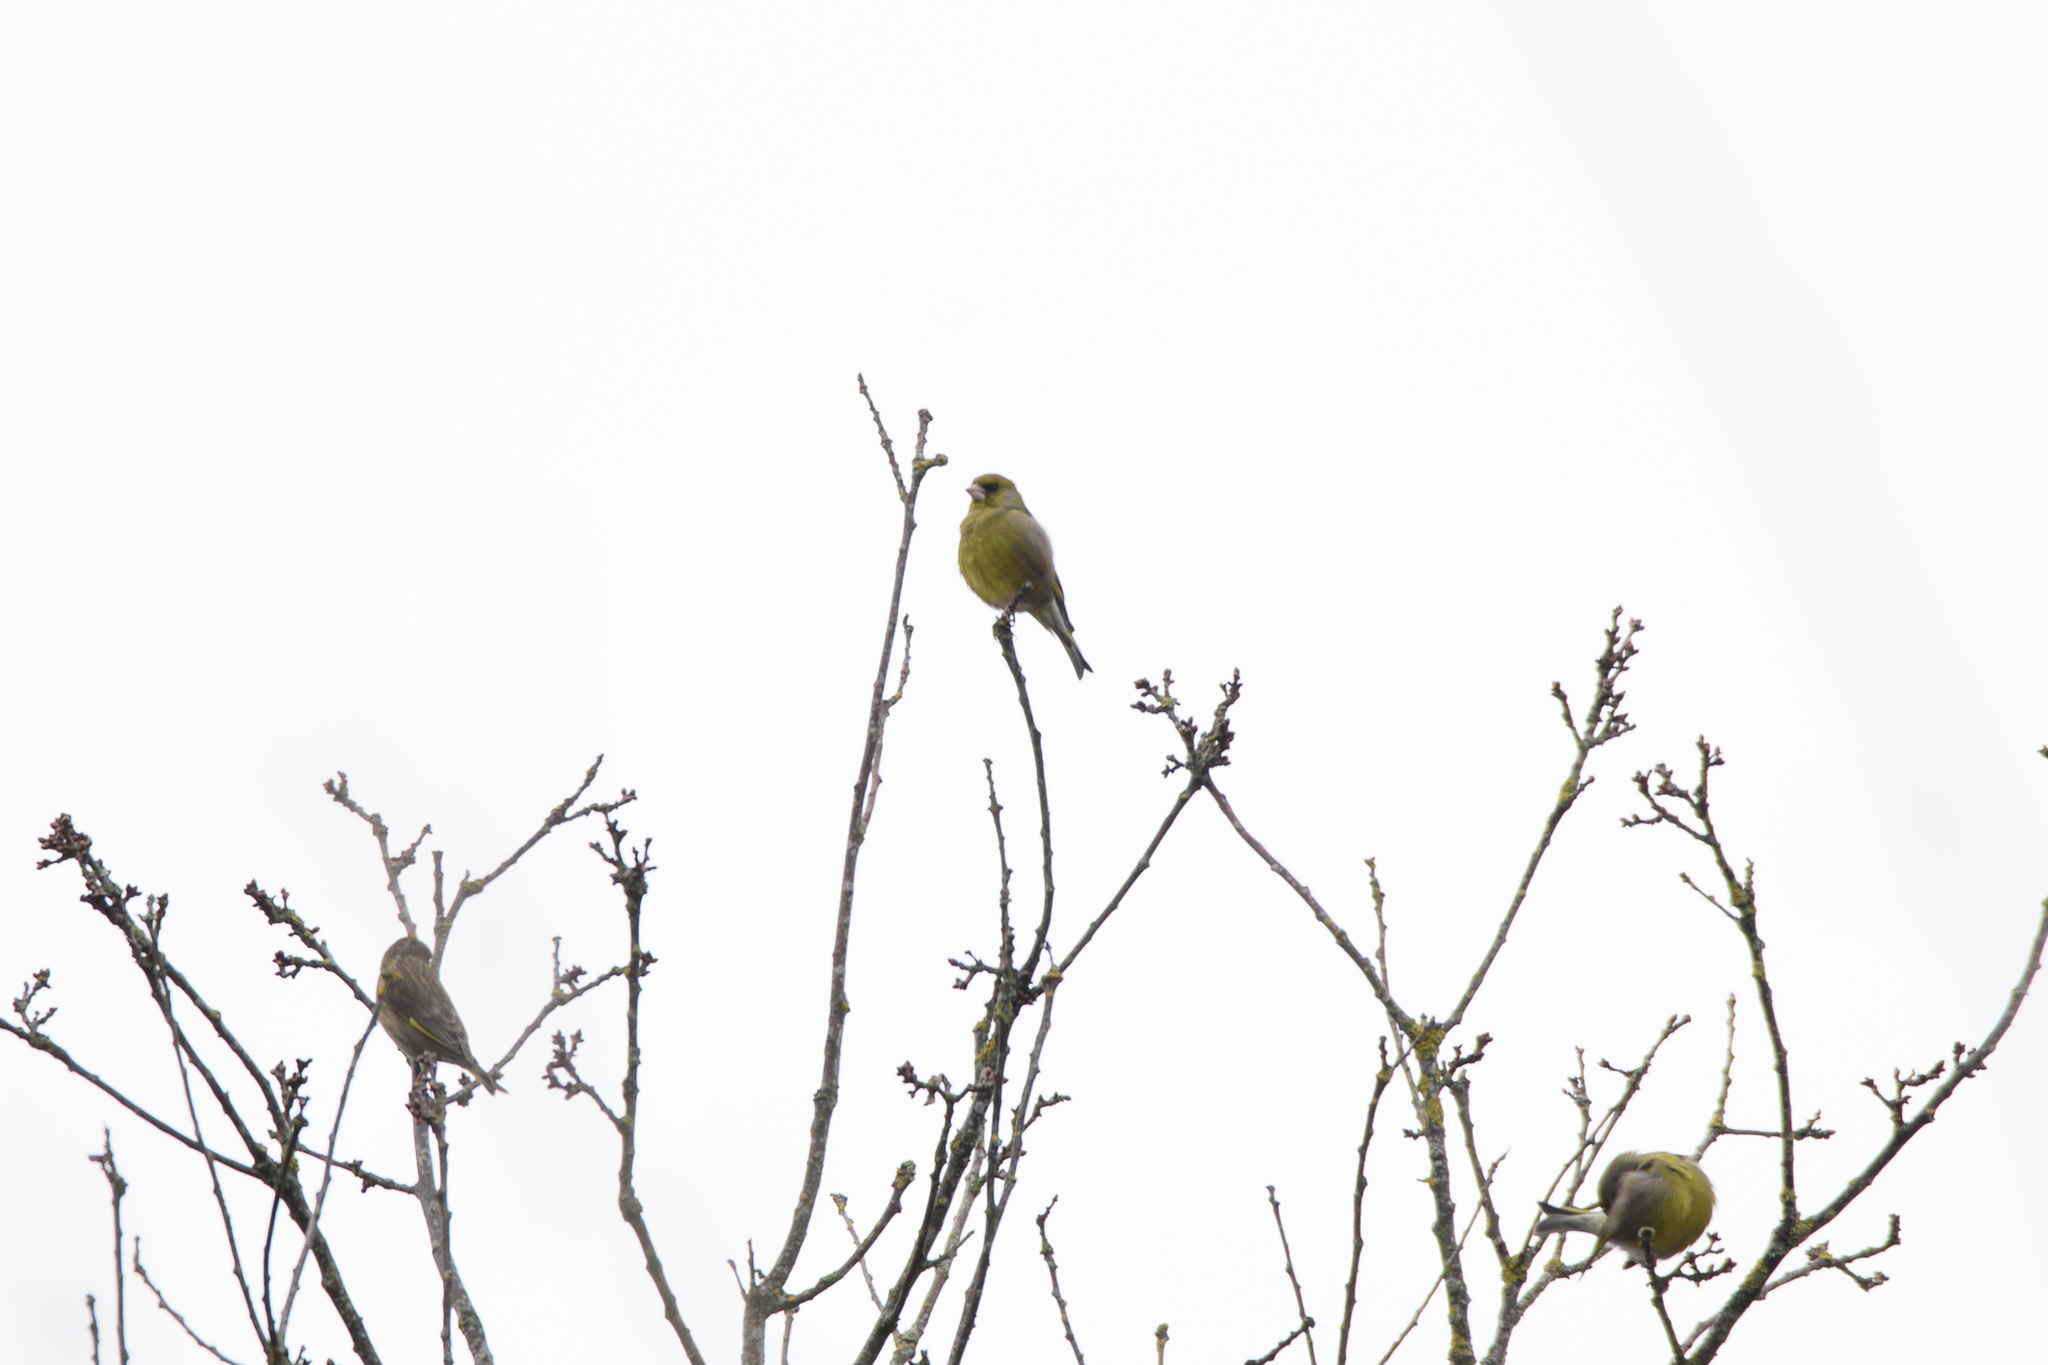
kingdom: Plantae
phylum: Tracheophyta
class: Liliopsida
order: Poales
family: Poaceae
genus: Chloris
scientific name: Chloris chloris
